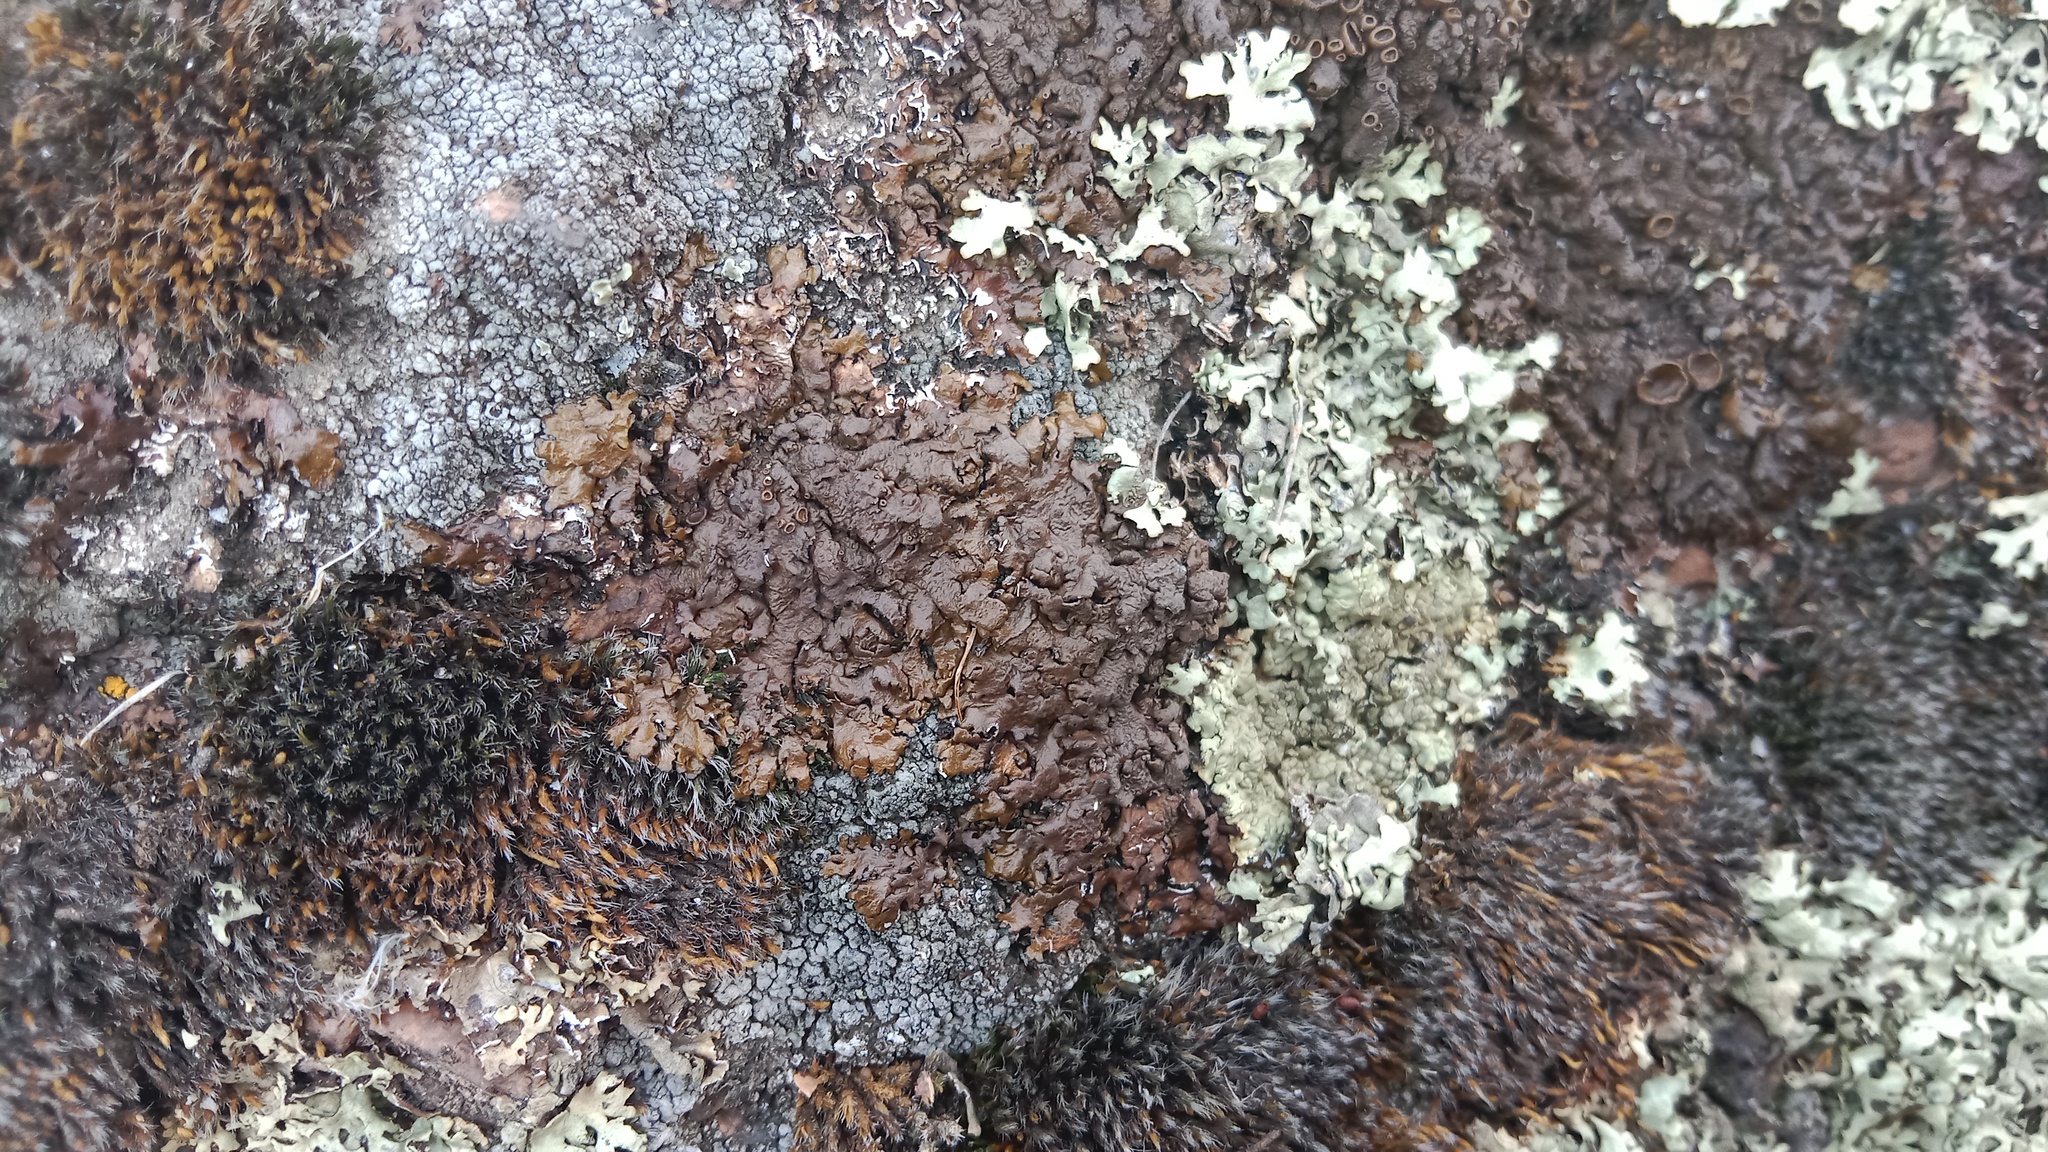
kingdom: Fungi
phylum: Ascomycota
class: Lecanoromycetes
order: Lecanorales
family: Parmeliaceae
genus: Xanthoparmelia
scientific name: Xanthoparmelia pulla
